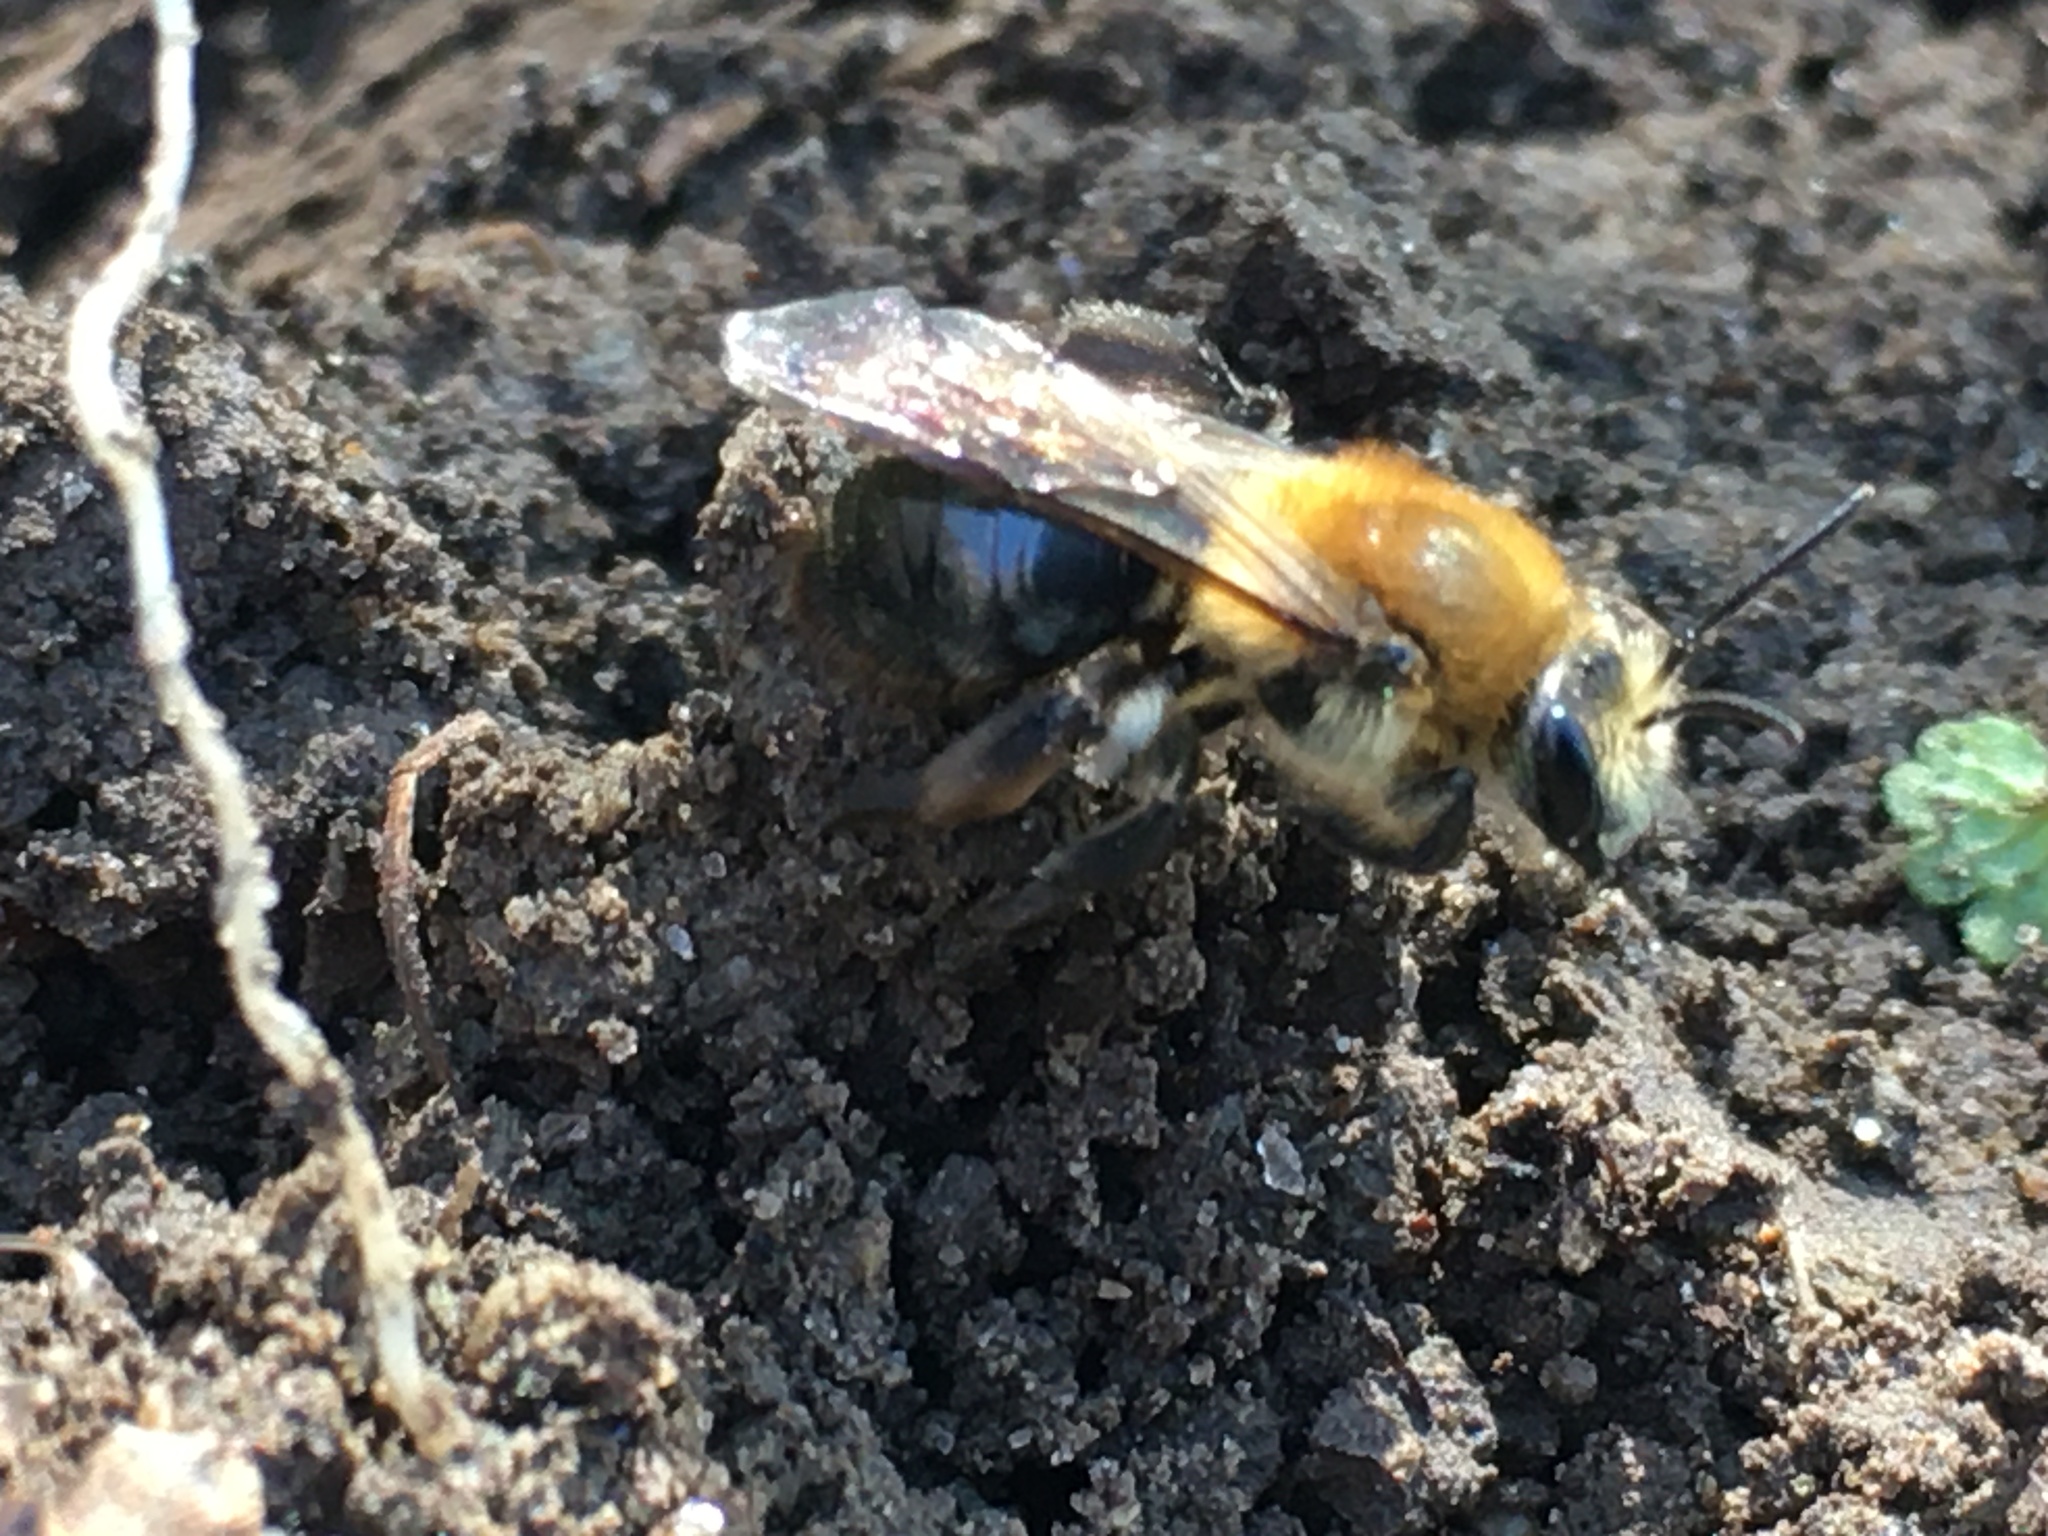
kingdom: Animalia
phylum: Arthropoda
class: Insecta
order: Hymenoptera
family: Andrenidae
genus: Andrena
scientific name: Andrena dunningi
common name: Dunning's miner
